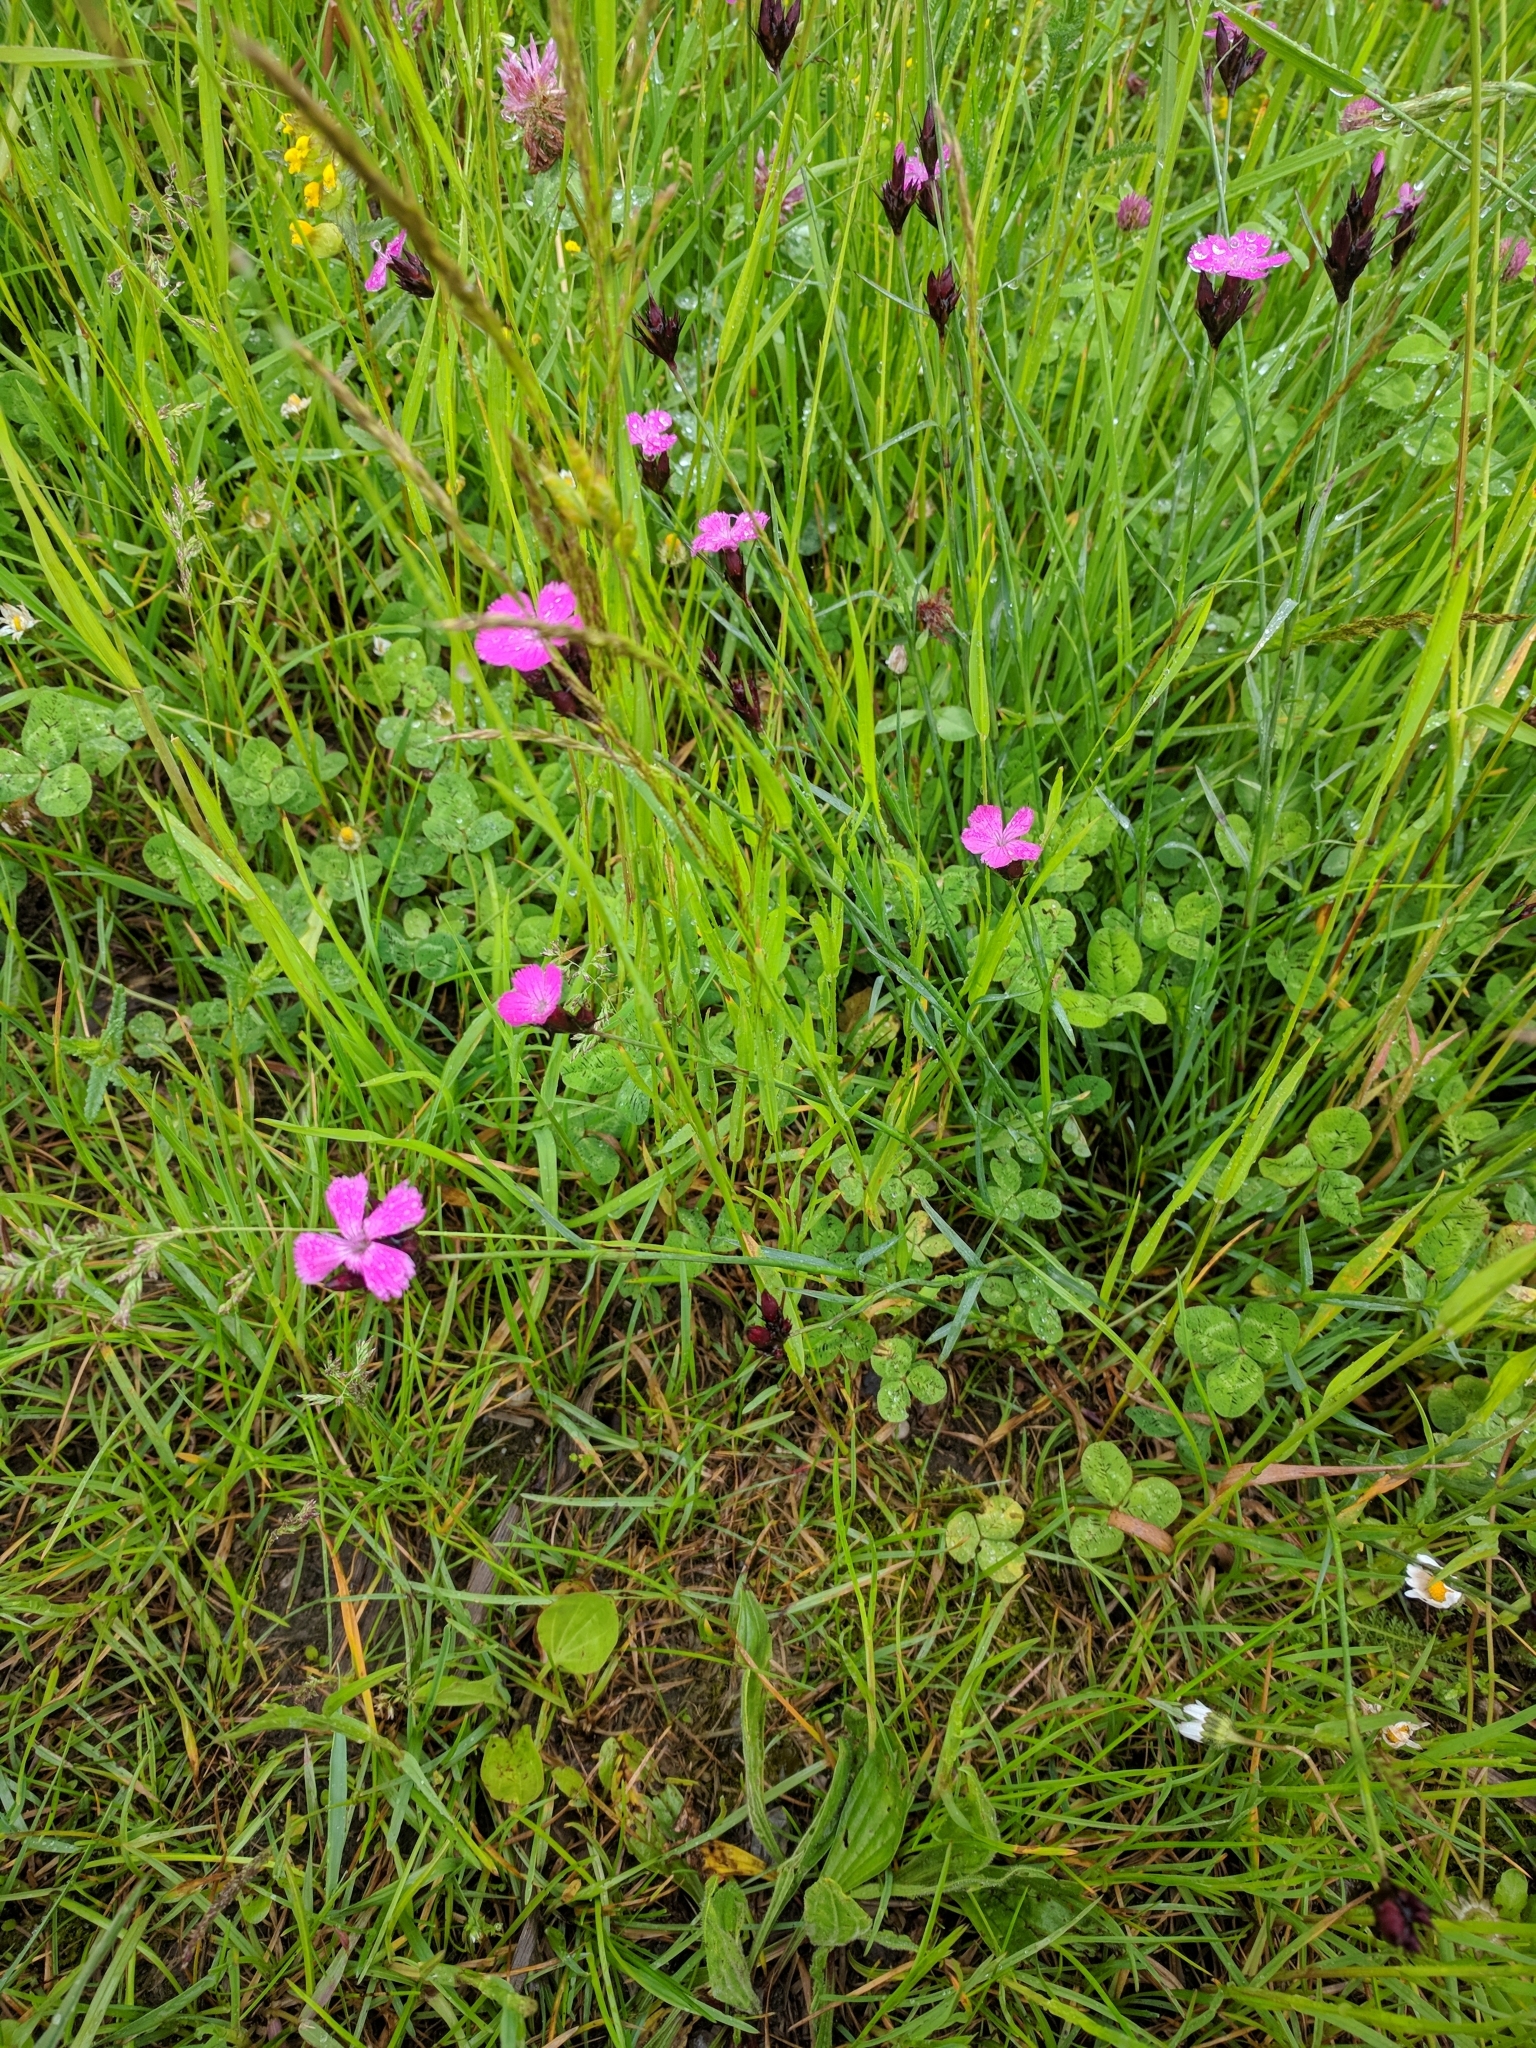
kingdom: Plantae
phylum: Tracheophyta
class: Magnoliopsida
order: Caryophyllales
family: Caryophyllaceae
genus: Dianthus
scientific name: Dianthus carthusianorum
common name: Carthusian pink
